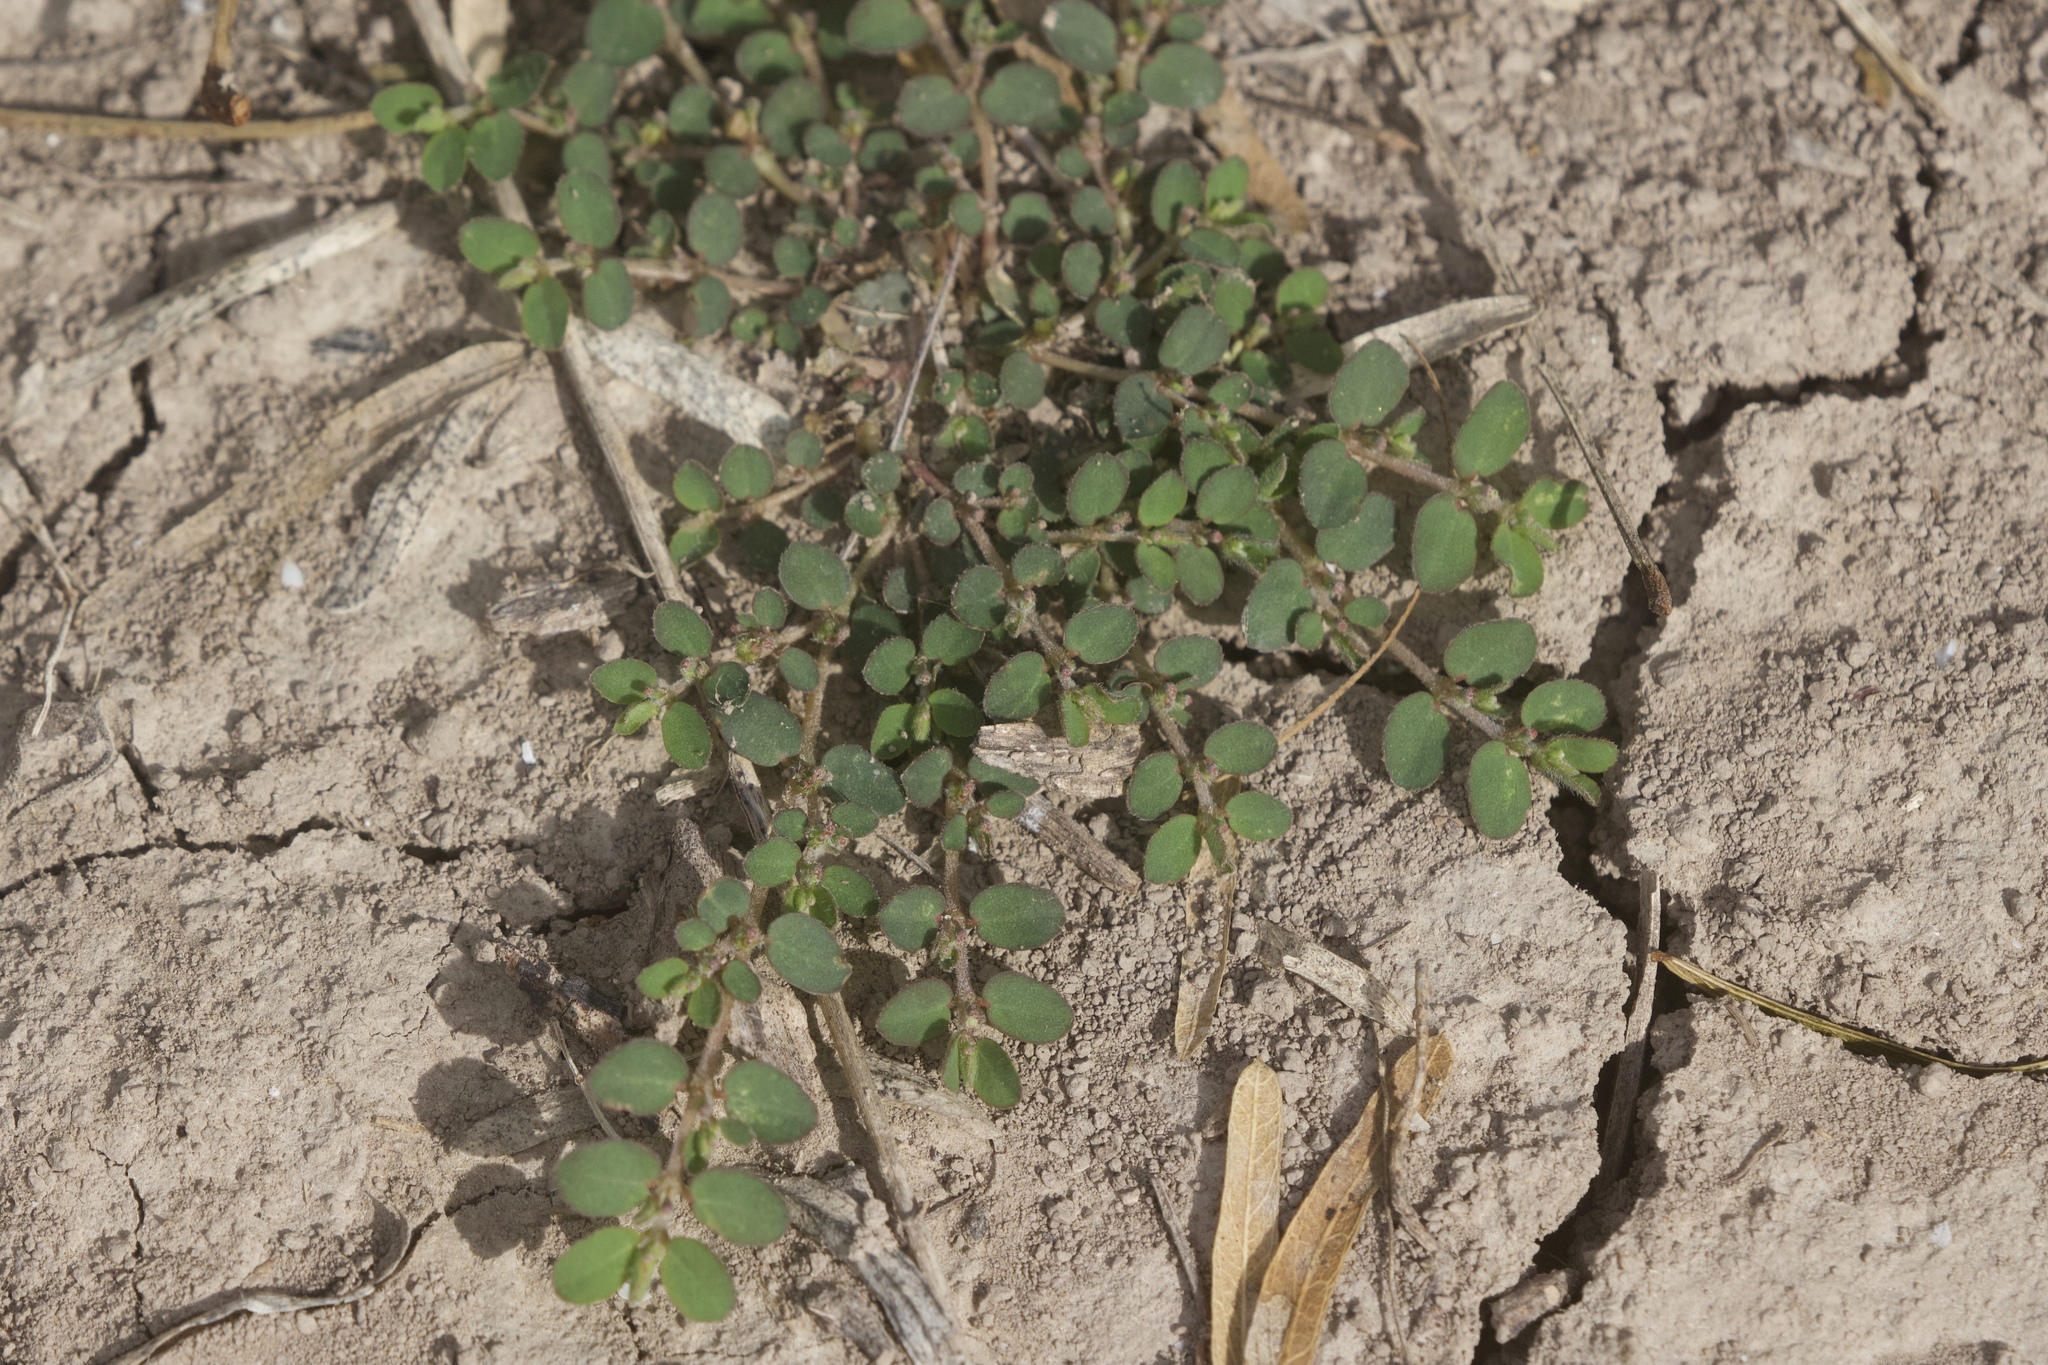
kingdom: Plantae
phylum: Tracheophyta
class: Magnoliopsida
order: Malpighiales
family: Euphorbiaceae
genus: Euphorbia
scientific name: Euphorbia prostrata
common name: Prostrate sandmat
